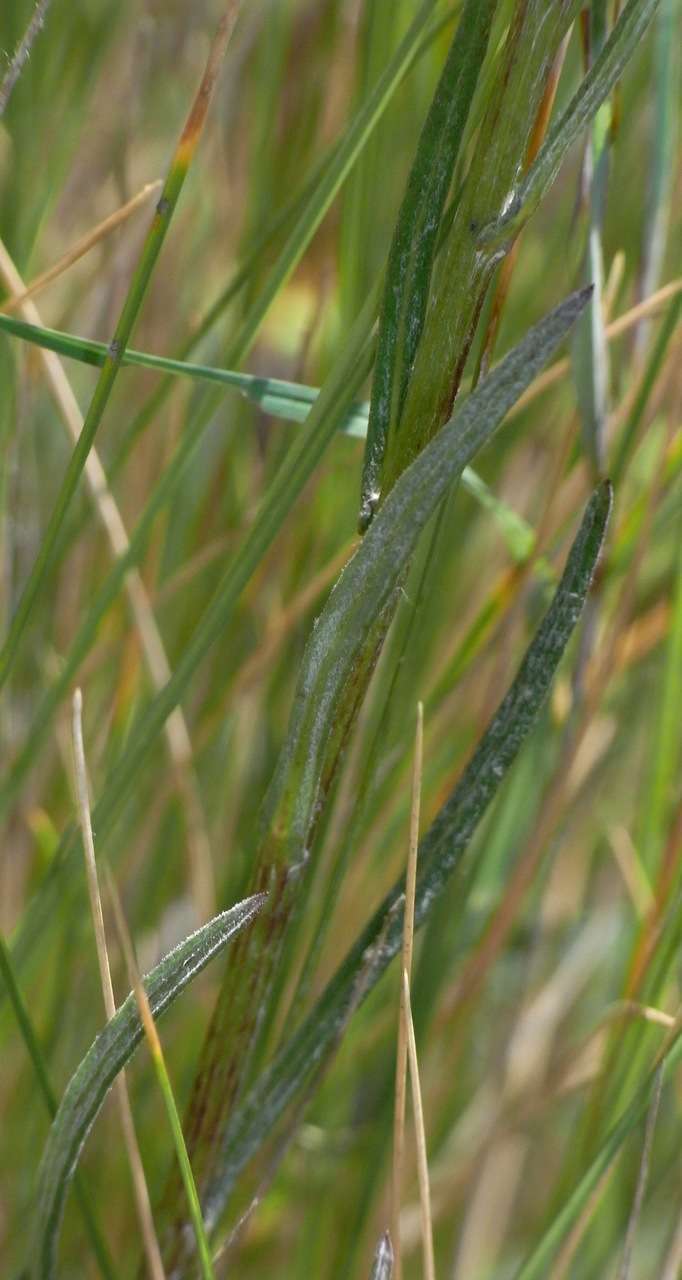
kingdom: Plantae
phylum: Tracheophyta
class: Magnoliopsida
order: Asterales
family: Asteraceae
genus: Senecio
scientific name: Senecio squarrosus
